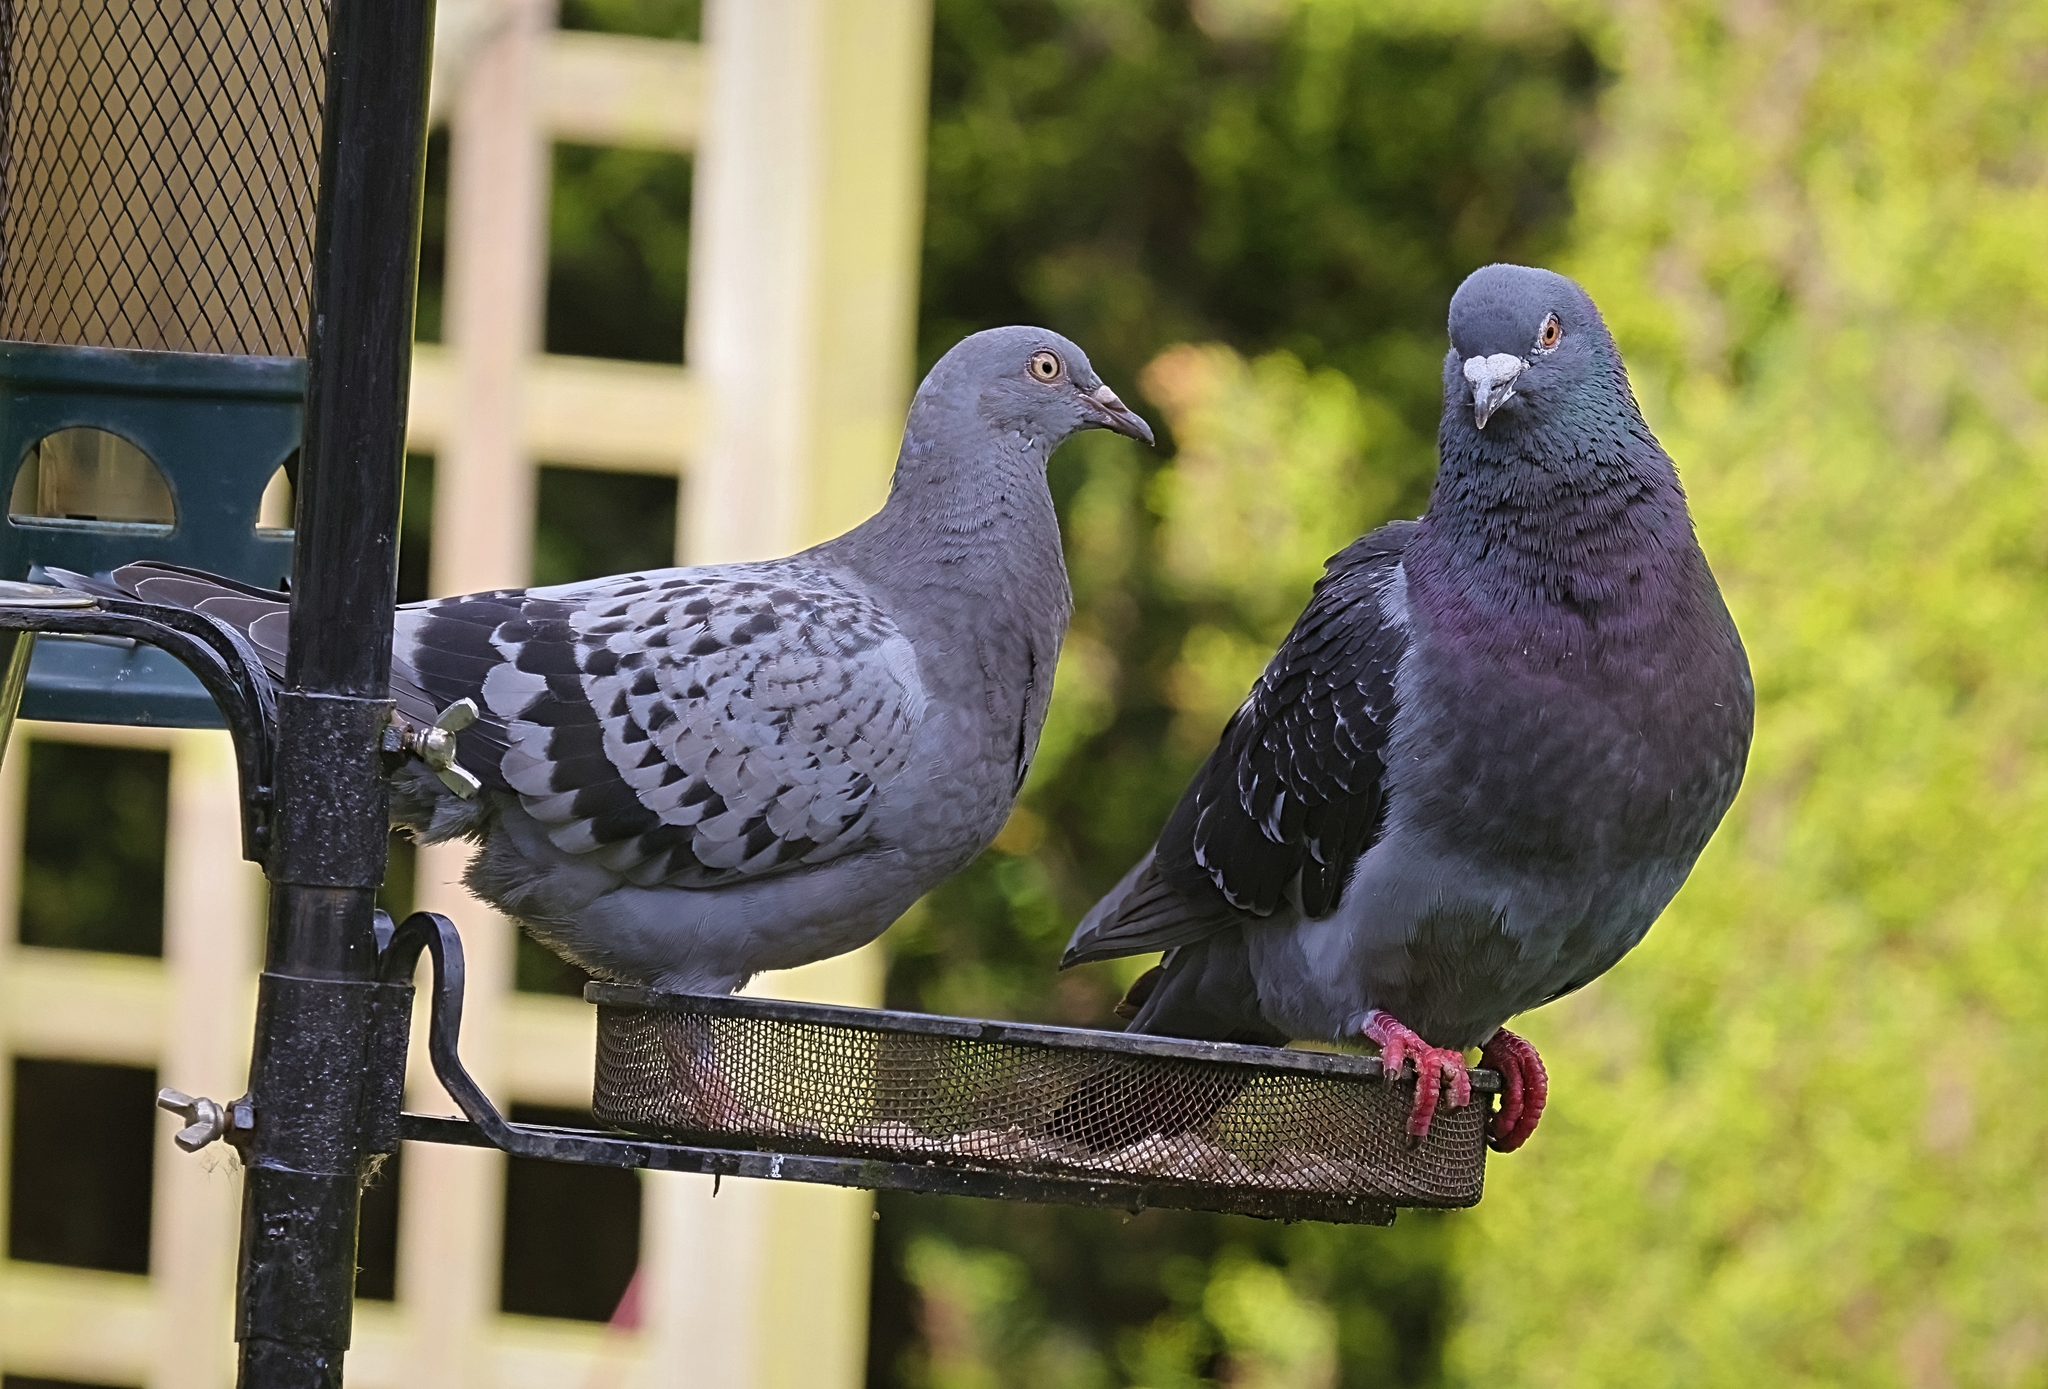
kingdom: Animalia
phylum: Chordata
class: Aves
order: Columbiformes
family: Columbidae
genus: Columba
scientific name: Columba livia
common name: Rock pigeon
